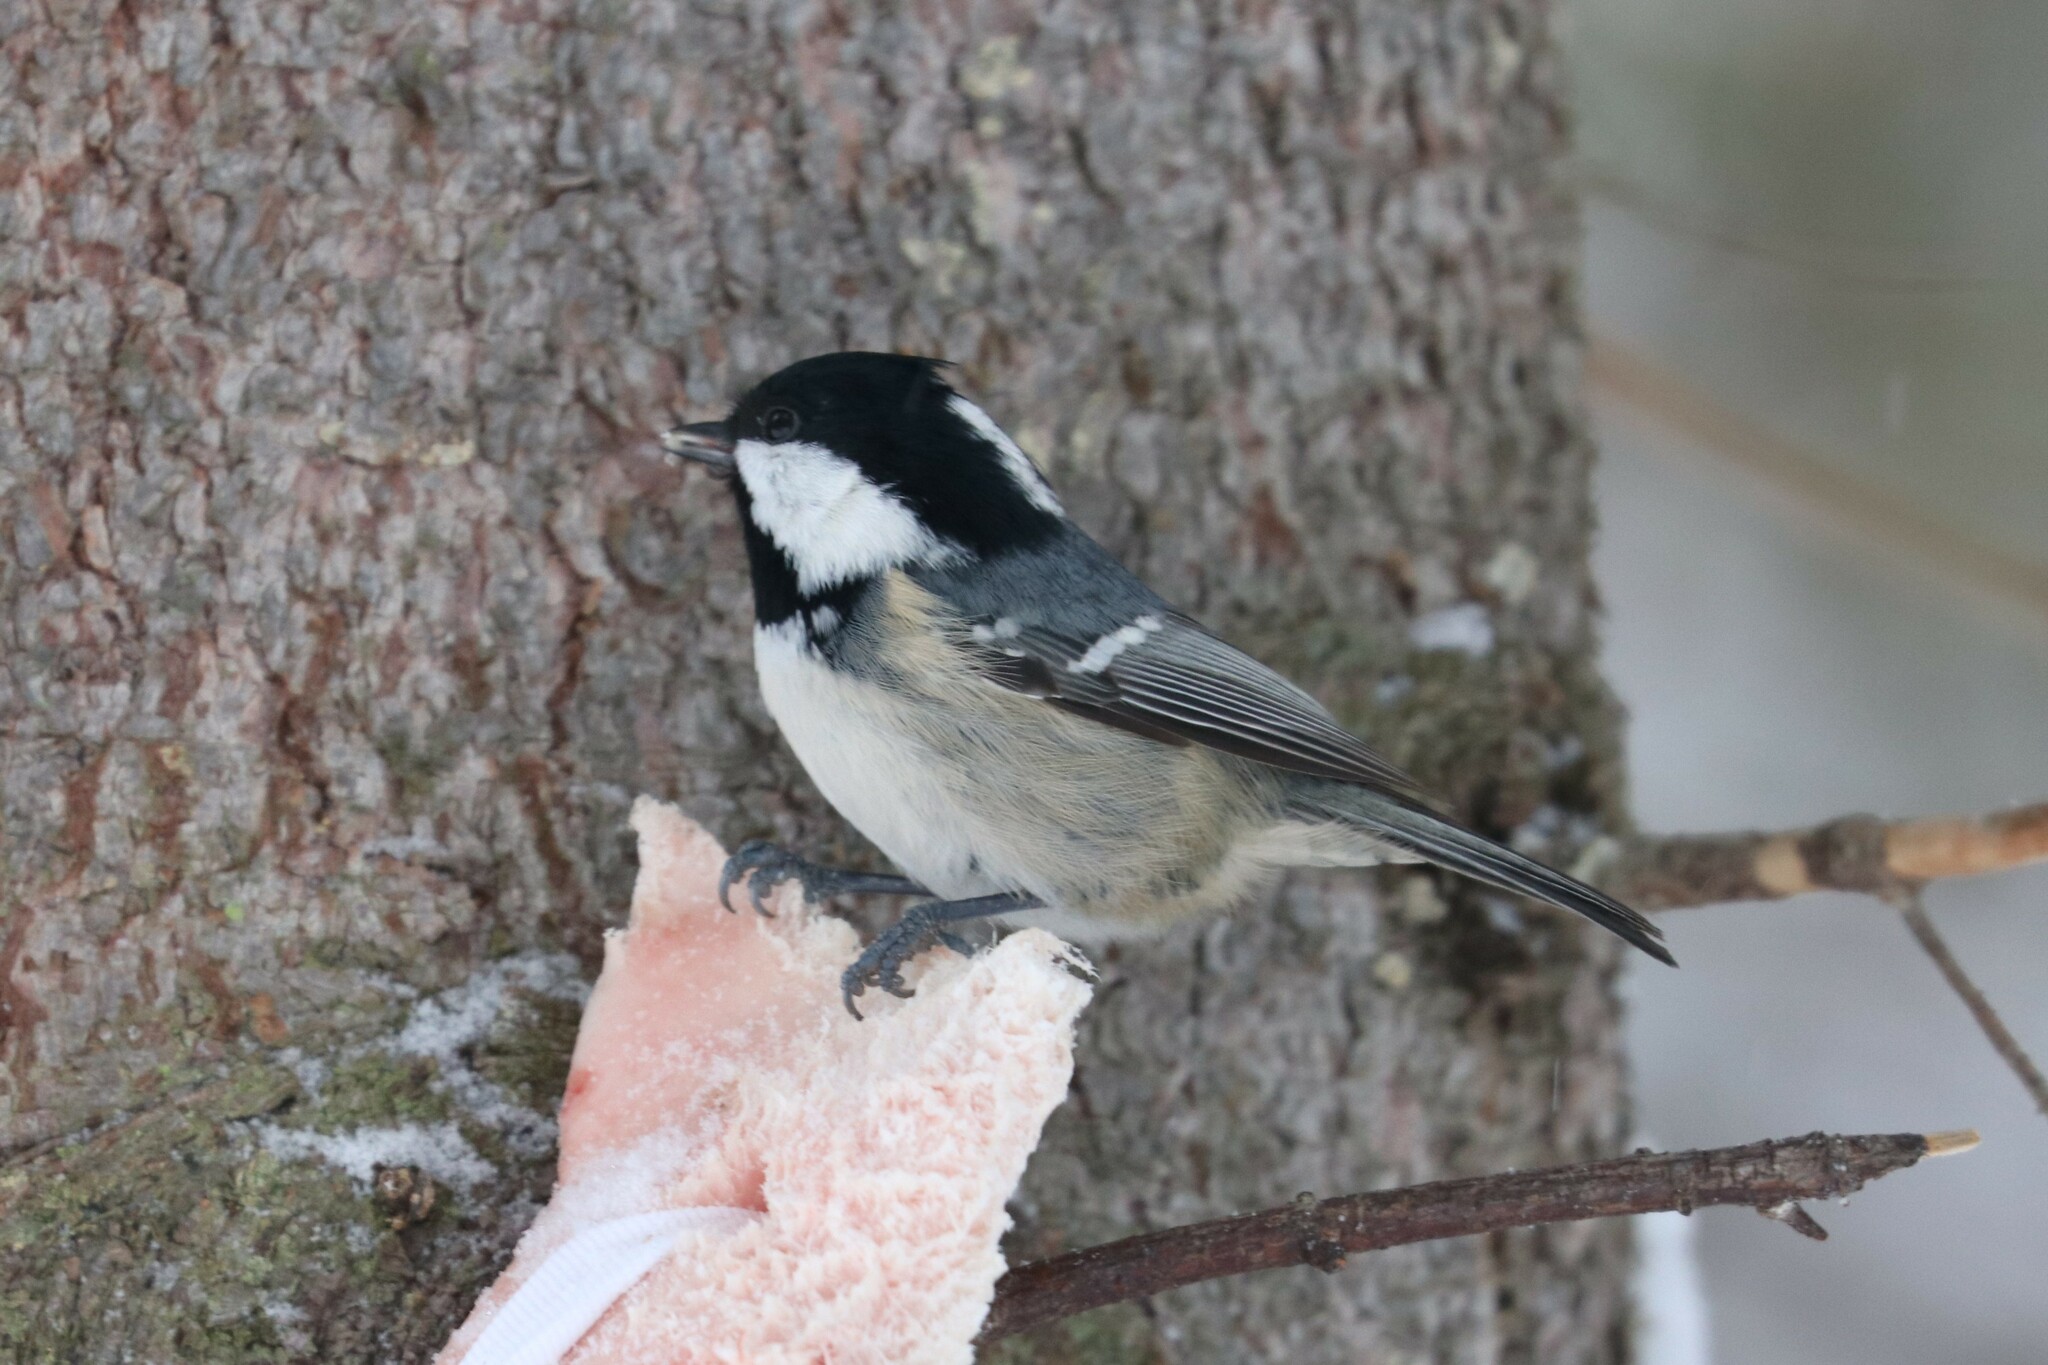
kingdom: Animalia
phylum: Chordata
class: Aves
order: Passeriformes
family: Paridae
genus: Periparus
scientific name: Periparus ater
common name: Coal tit
